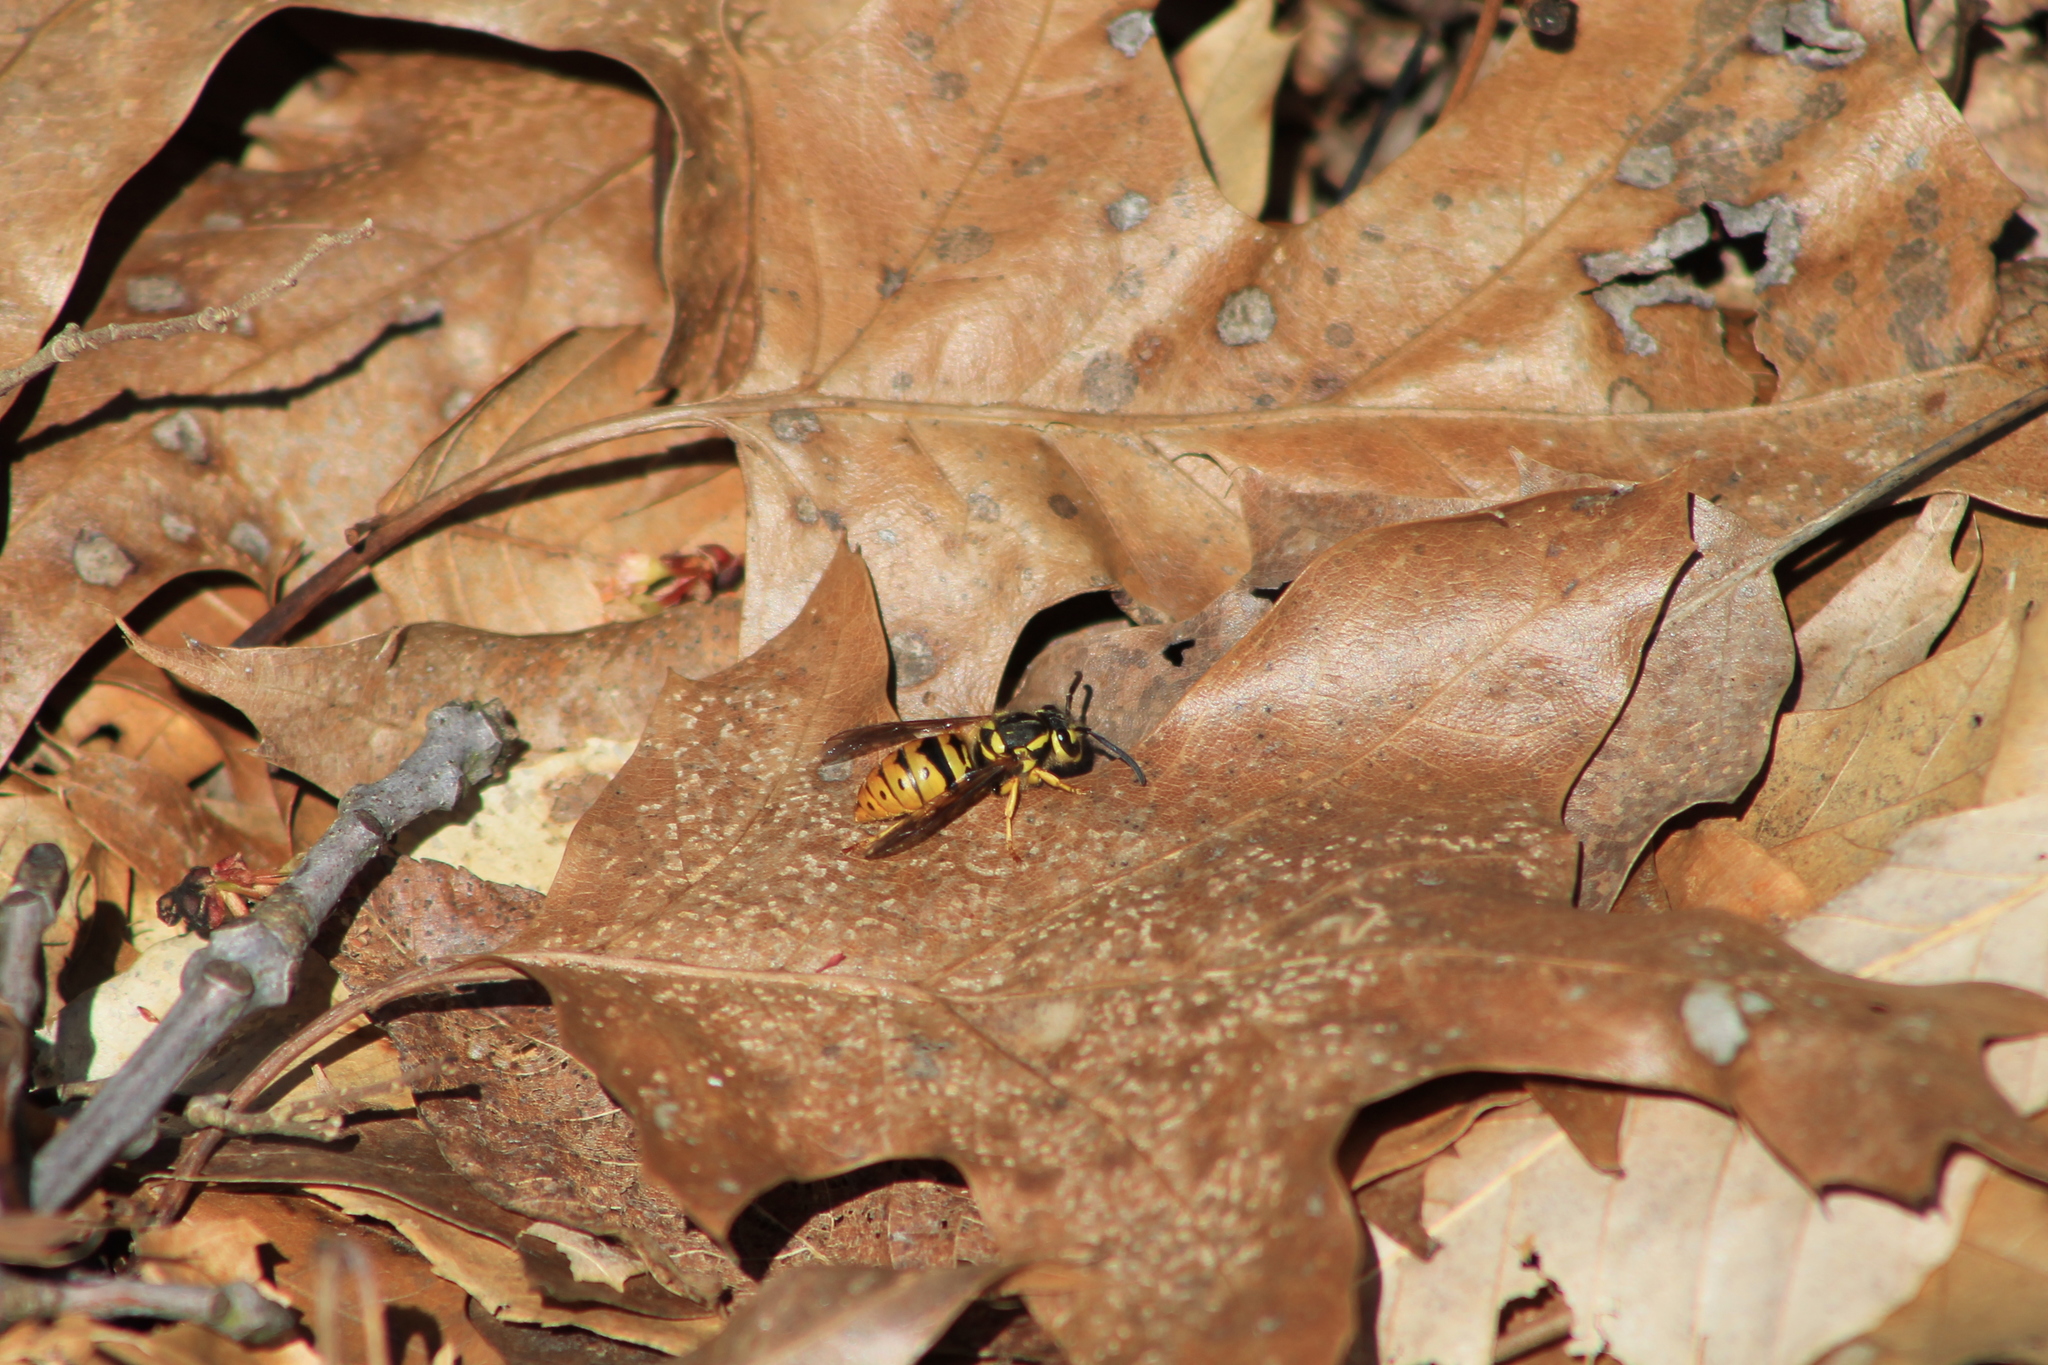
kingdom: Animalia
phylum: Arthropoda
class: Insecta
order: Hymenoptera
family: Vespidae
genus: Vespula
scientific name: Vespula maculifrons
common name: Eastern yellowjacket
